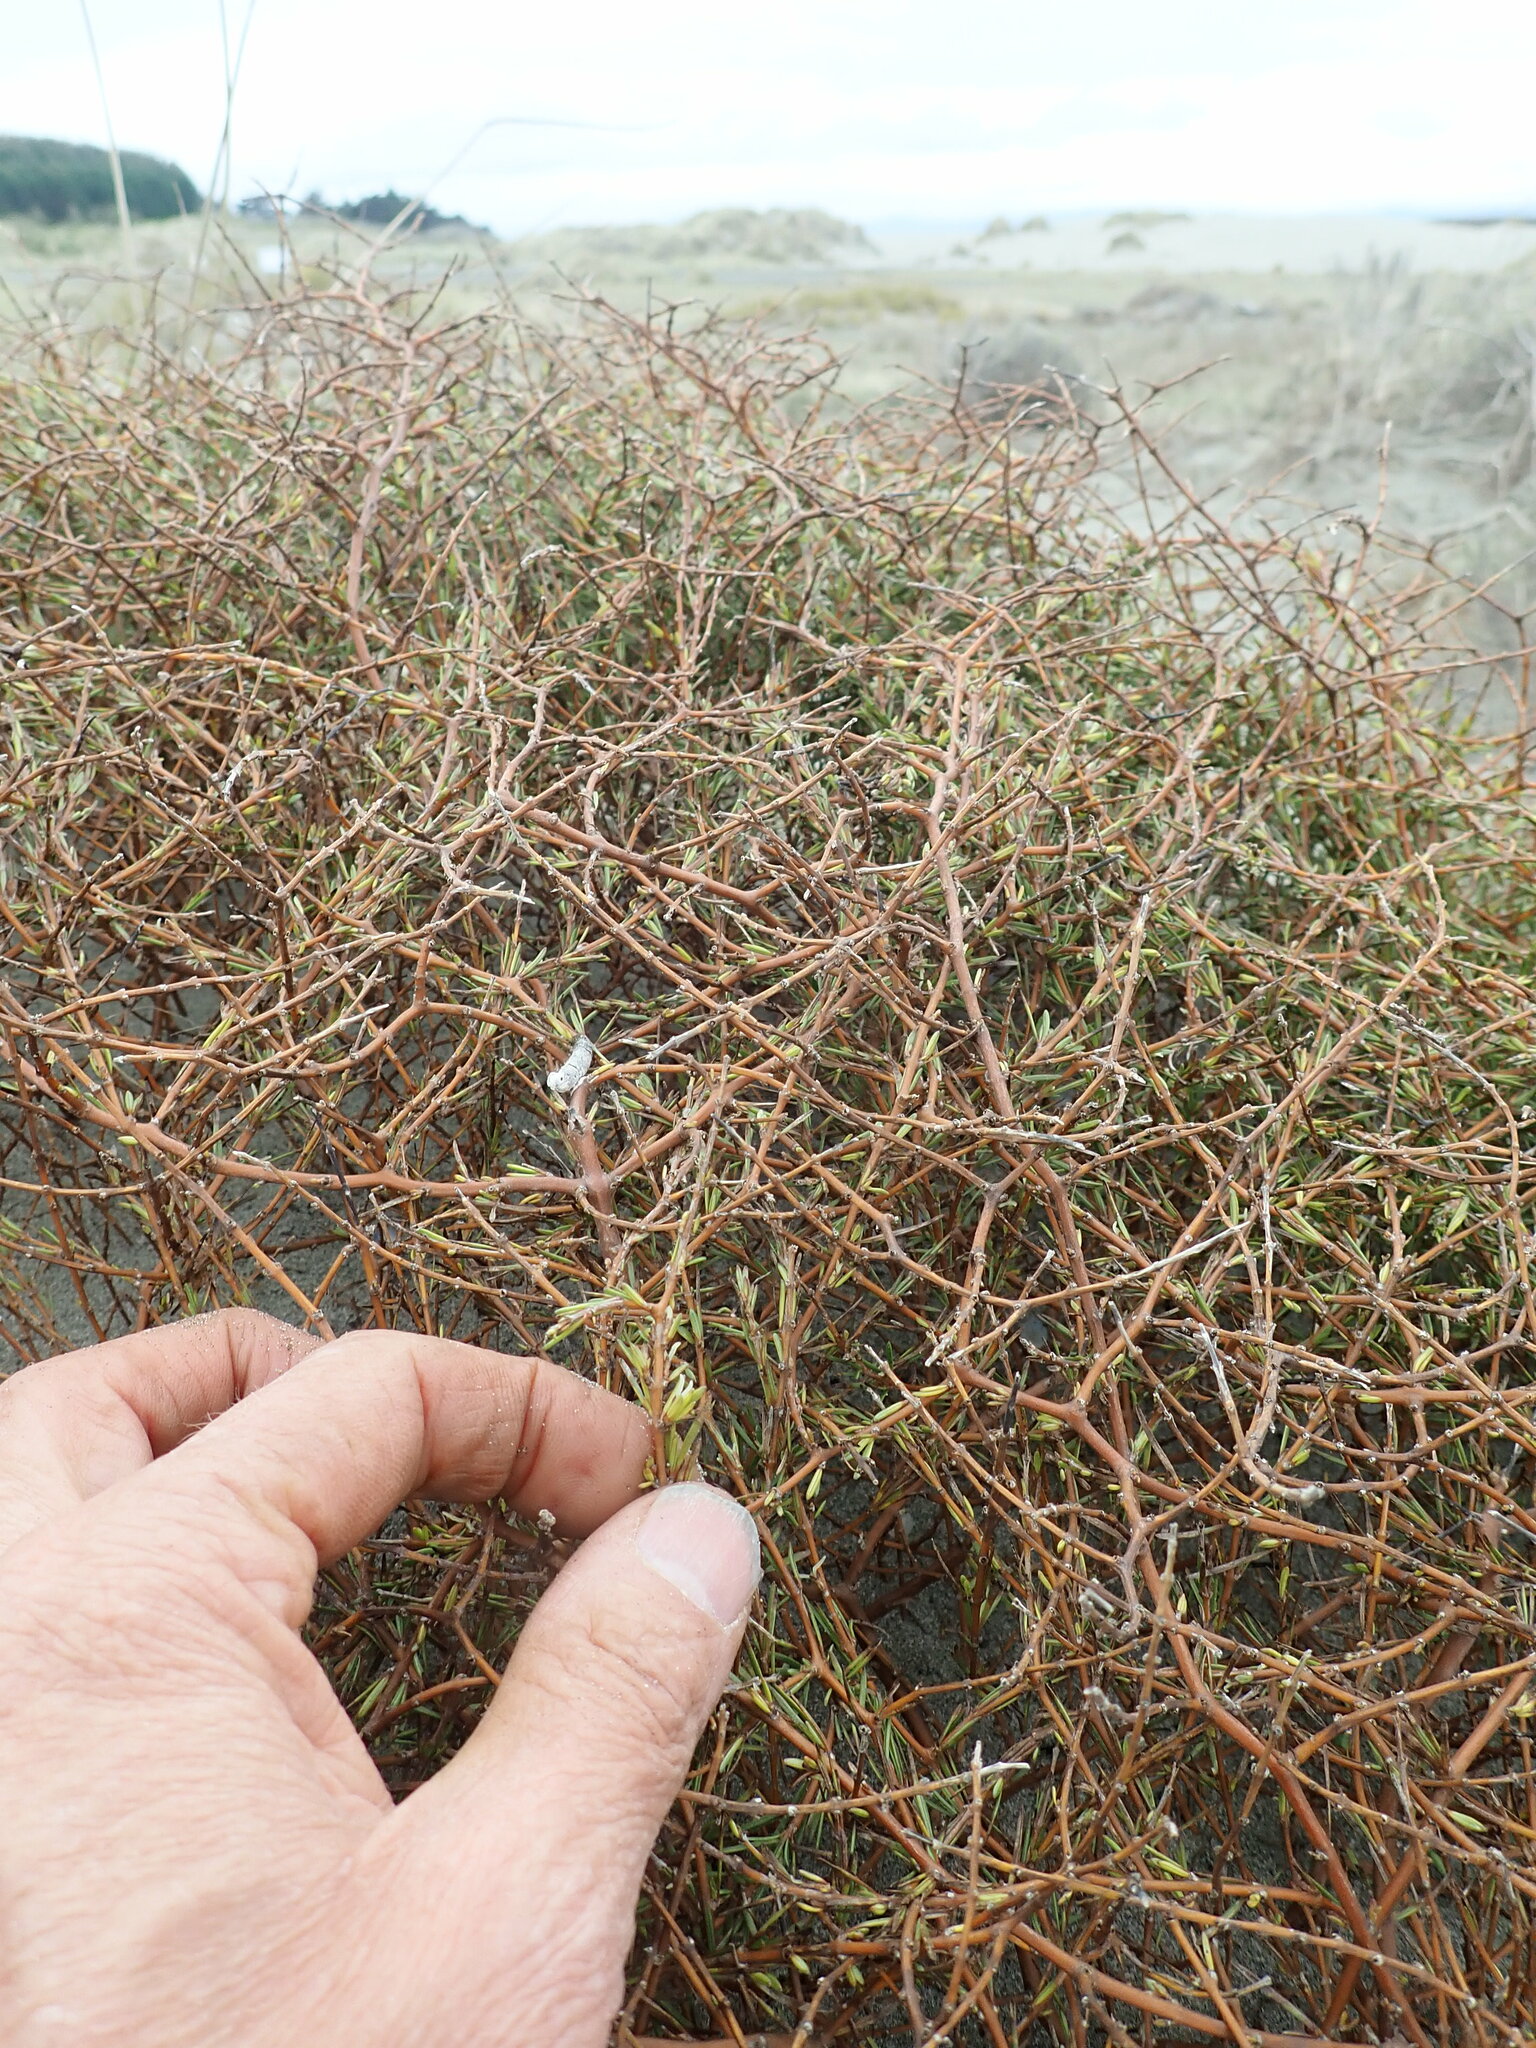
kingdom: Plantae
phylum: Tracheophyta
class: Magnoliopsida
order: Gentianales
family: Rubiaceae
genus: Coprosma
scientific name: Coprosma acerosa
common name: Sand coprosma
